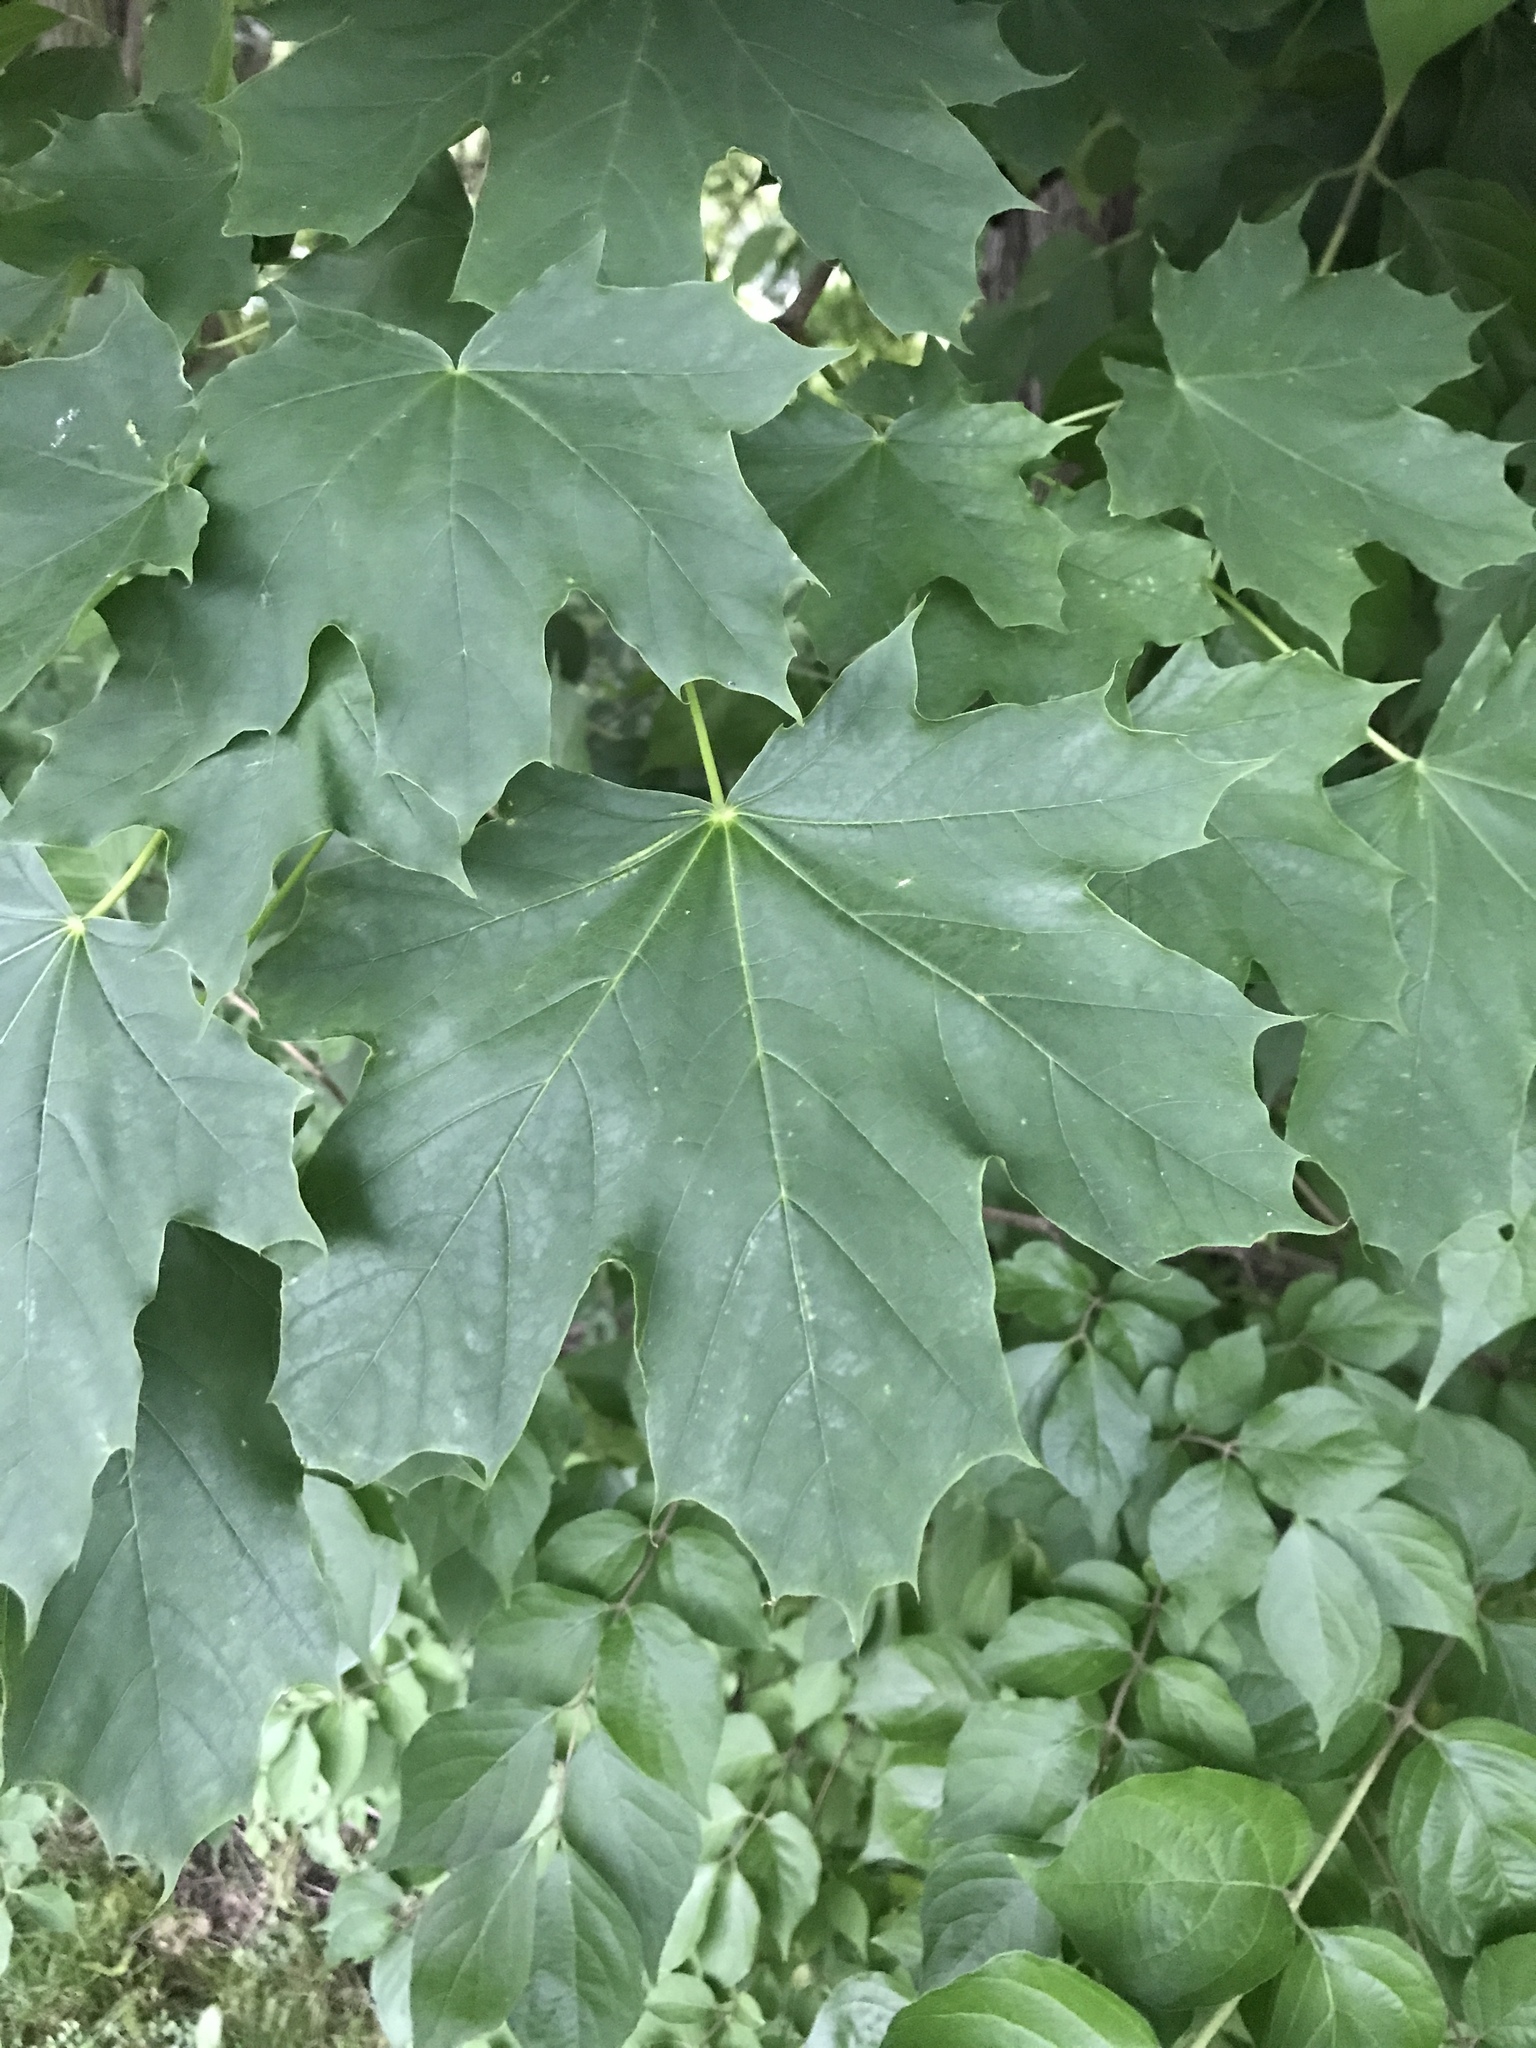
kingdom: Plantae
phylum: Tracheophyta
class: Magnoliopsida
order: Sapindales
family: Sapindaceae
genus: Acer
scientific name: Acer platanoides
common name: Norway maple
